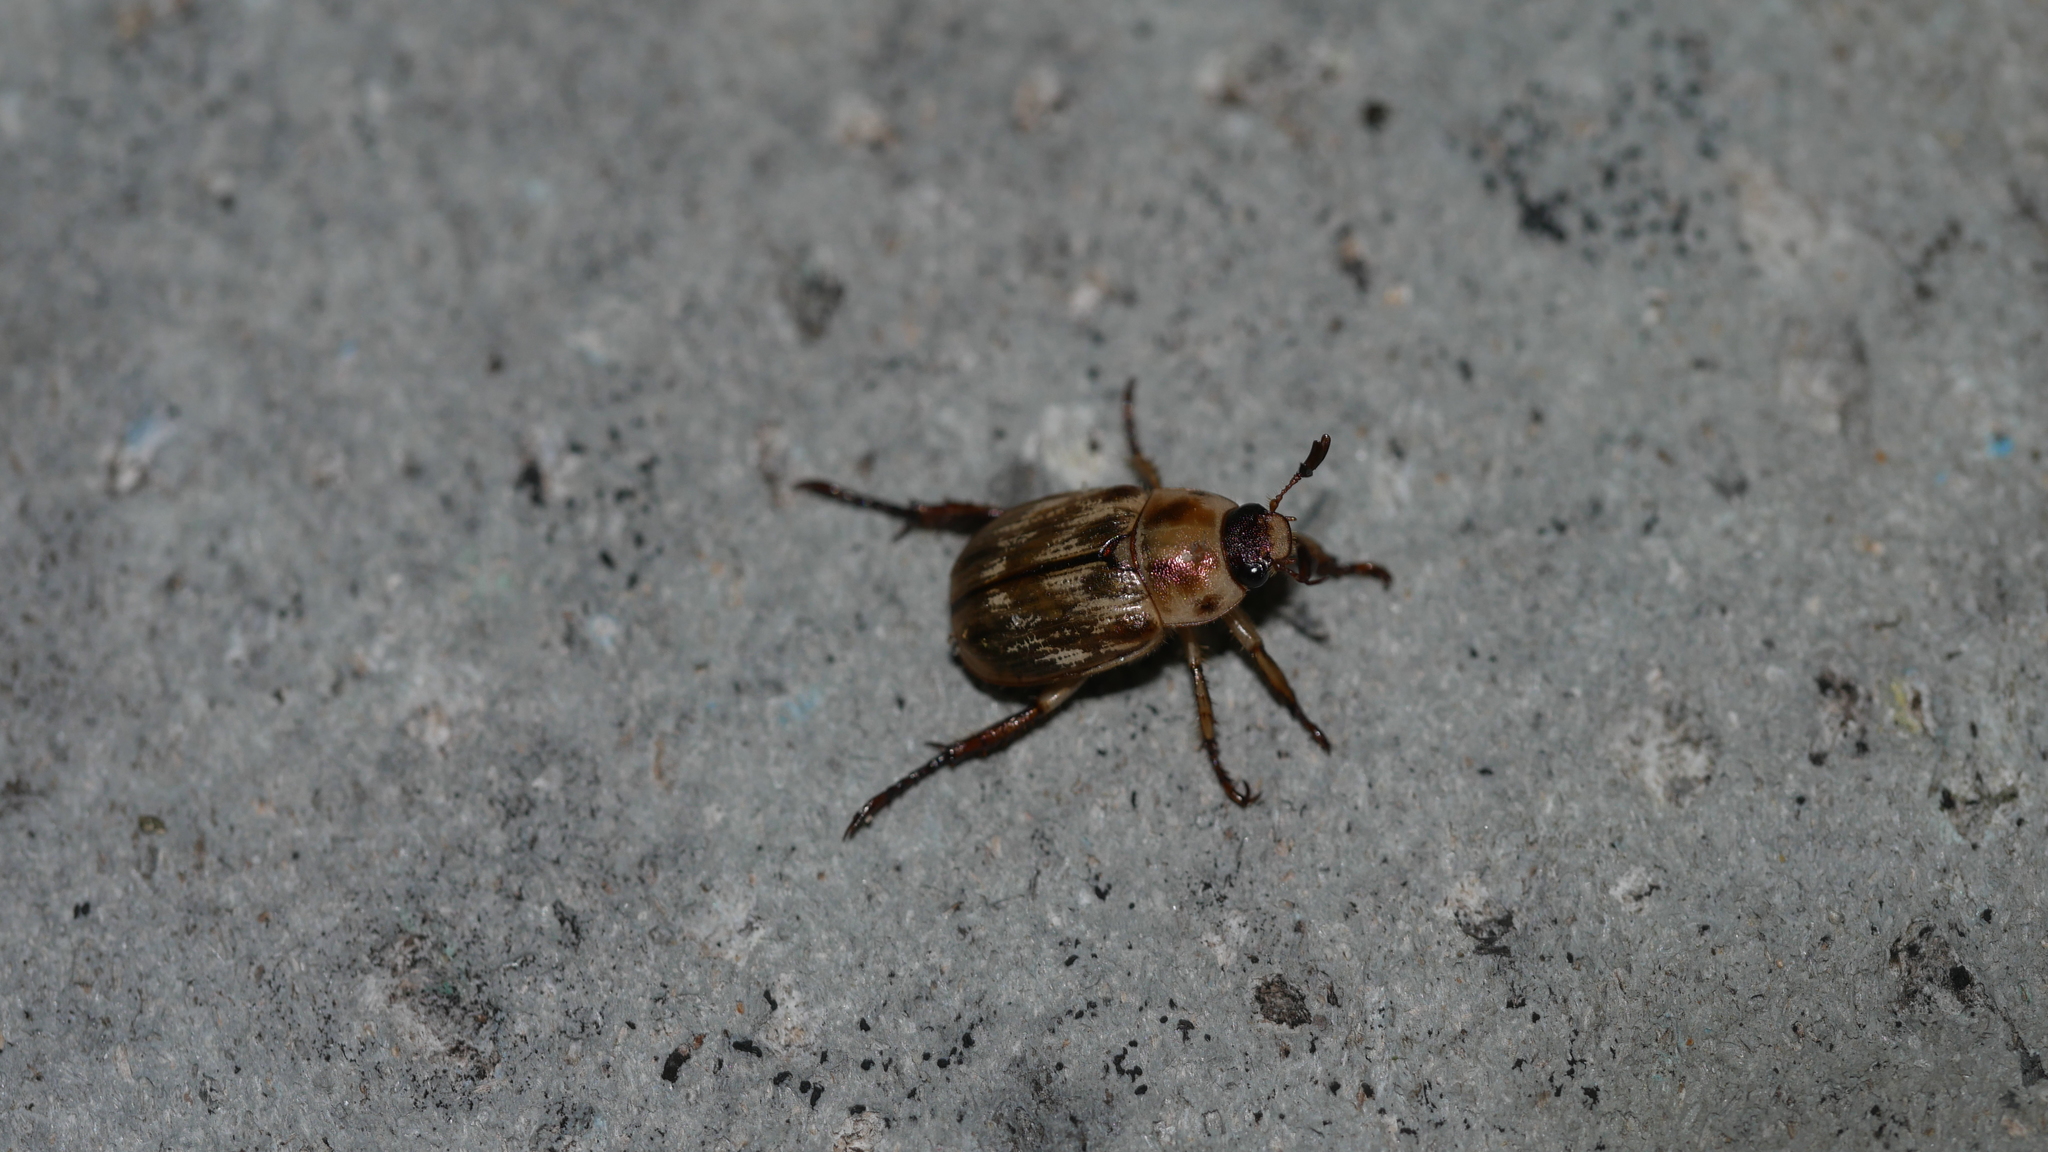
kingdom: Animalia
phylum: Arthropoda
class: Insecta
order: Coleoptera
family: Scarabaeidae
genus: Exomala
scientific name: Exomala orientalis
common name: Oriental beetle
